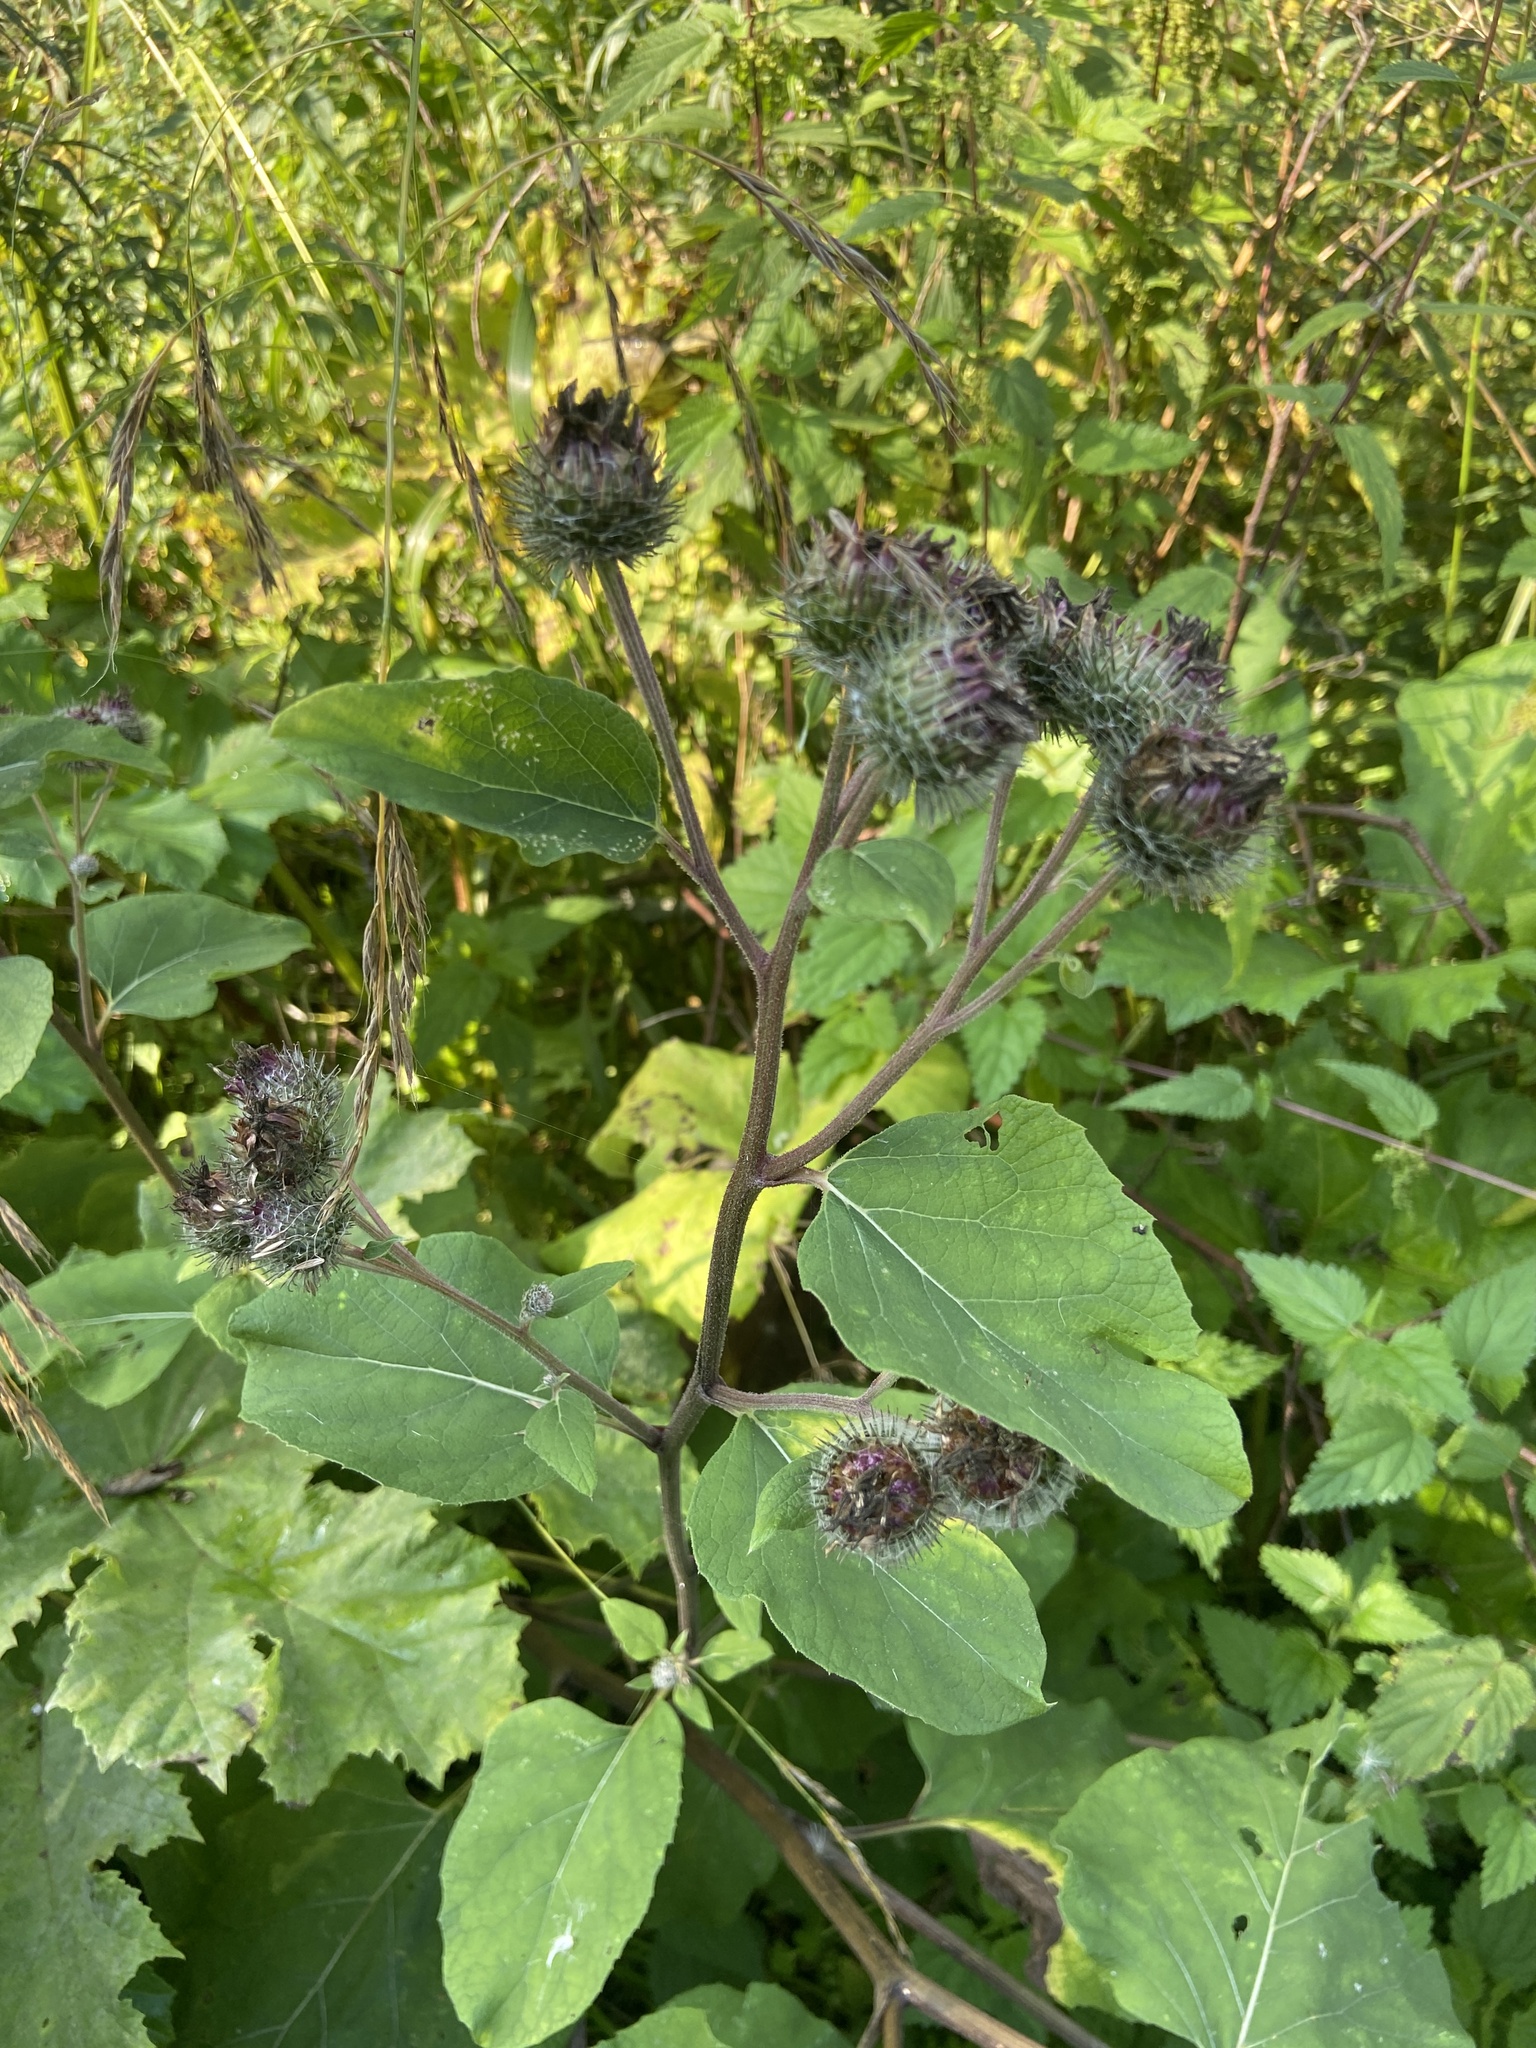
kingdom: Plantae
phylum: Tracheophyta
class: Magnoliopsida
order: Asterales
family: Asteraceae
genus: Arctium
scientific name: Arctium tomentosum
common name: Woolly burdock
